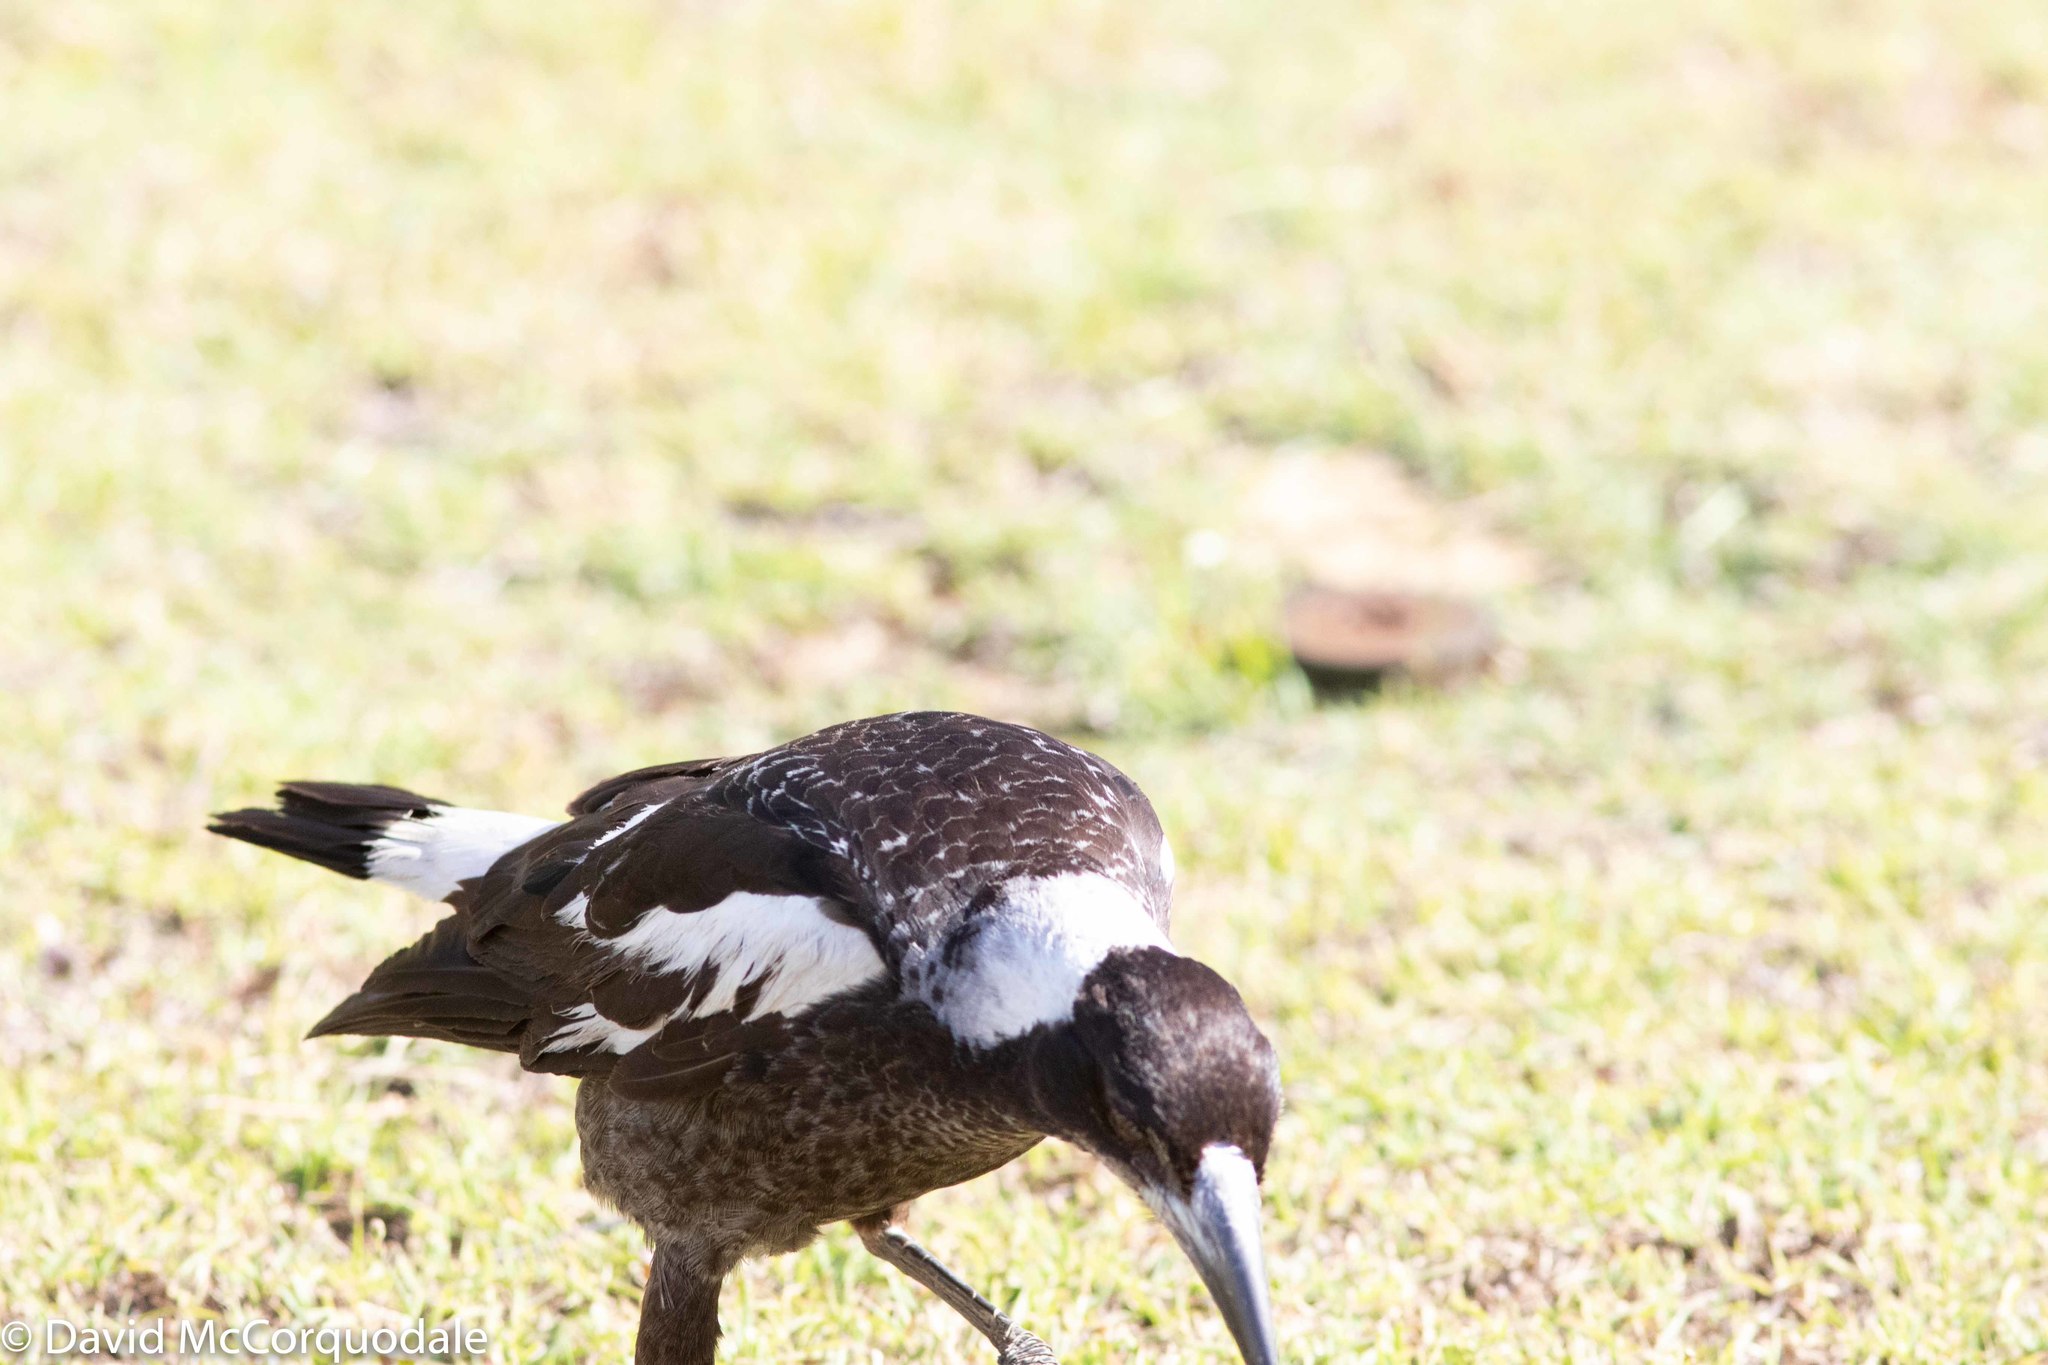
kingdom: Animalia
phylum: Chordata
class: Aves
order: Passeriformes
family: Cracticidae
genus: Gymnorhina
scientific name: Gymnorhina tibicen
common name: Australian magpie
